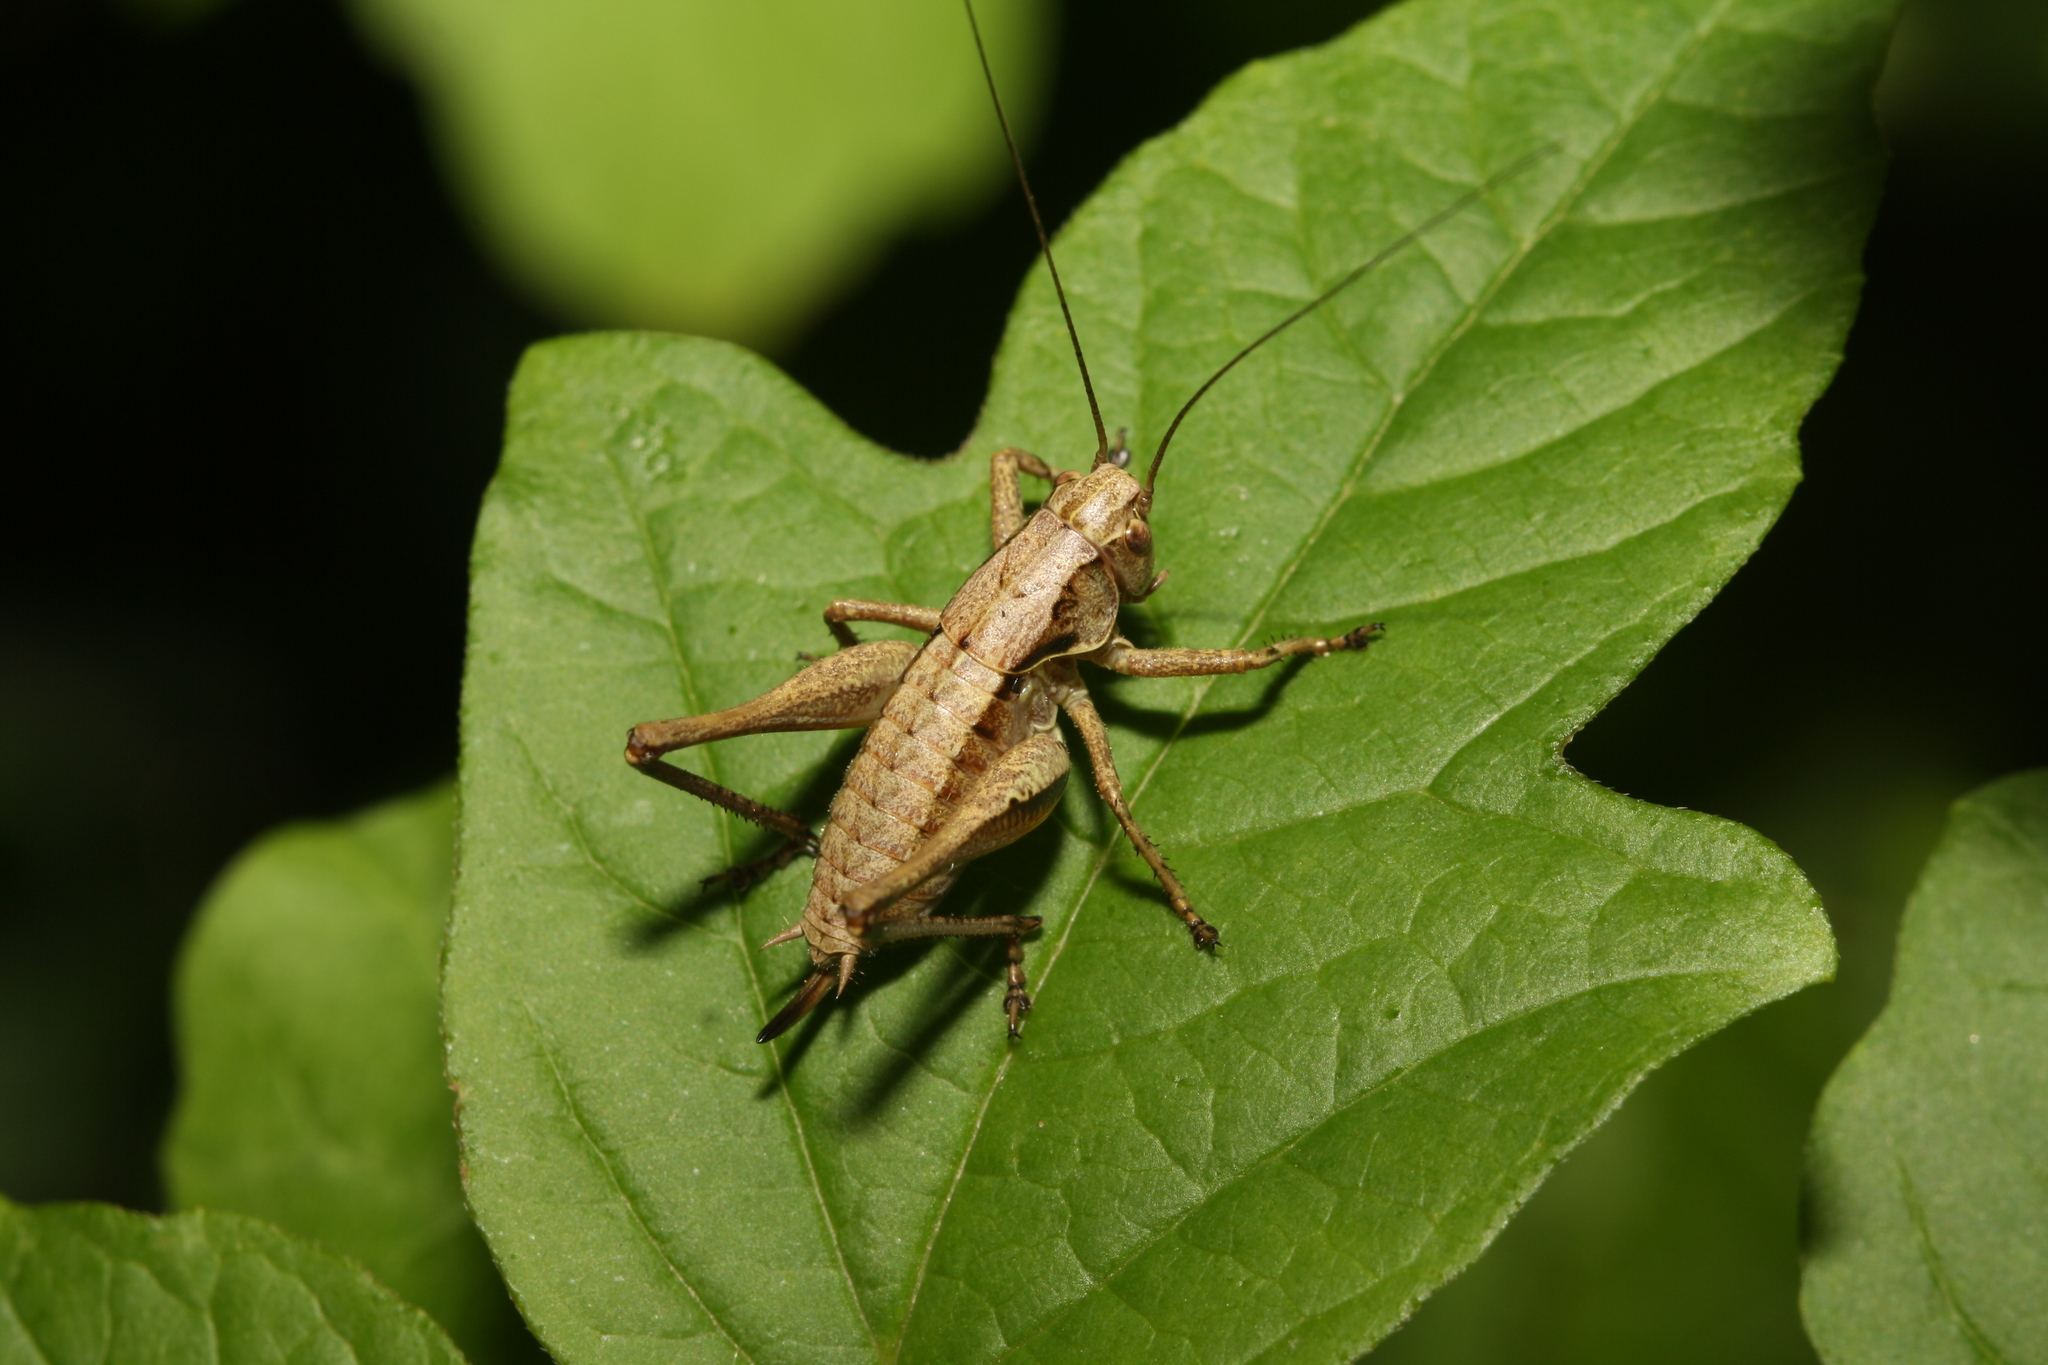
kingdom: Animalia
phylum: Arthropoda
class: Insecta
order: Orthoptera
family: Tettigoniidae
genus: Pholidoptera
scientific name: Pholidoptera griseoaptera
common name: Dark bush-cricket
